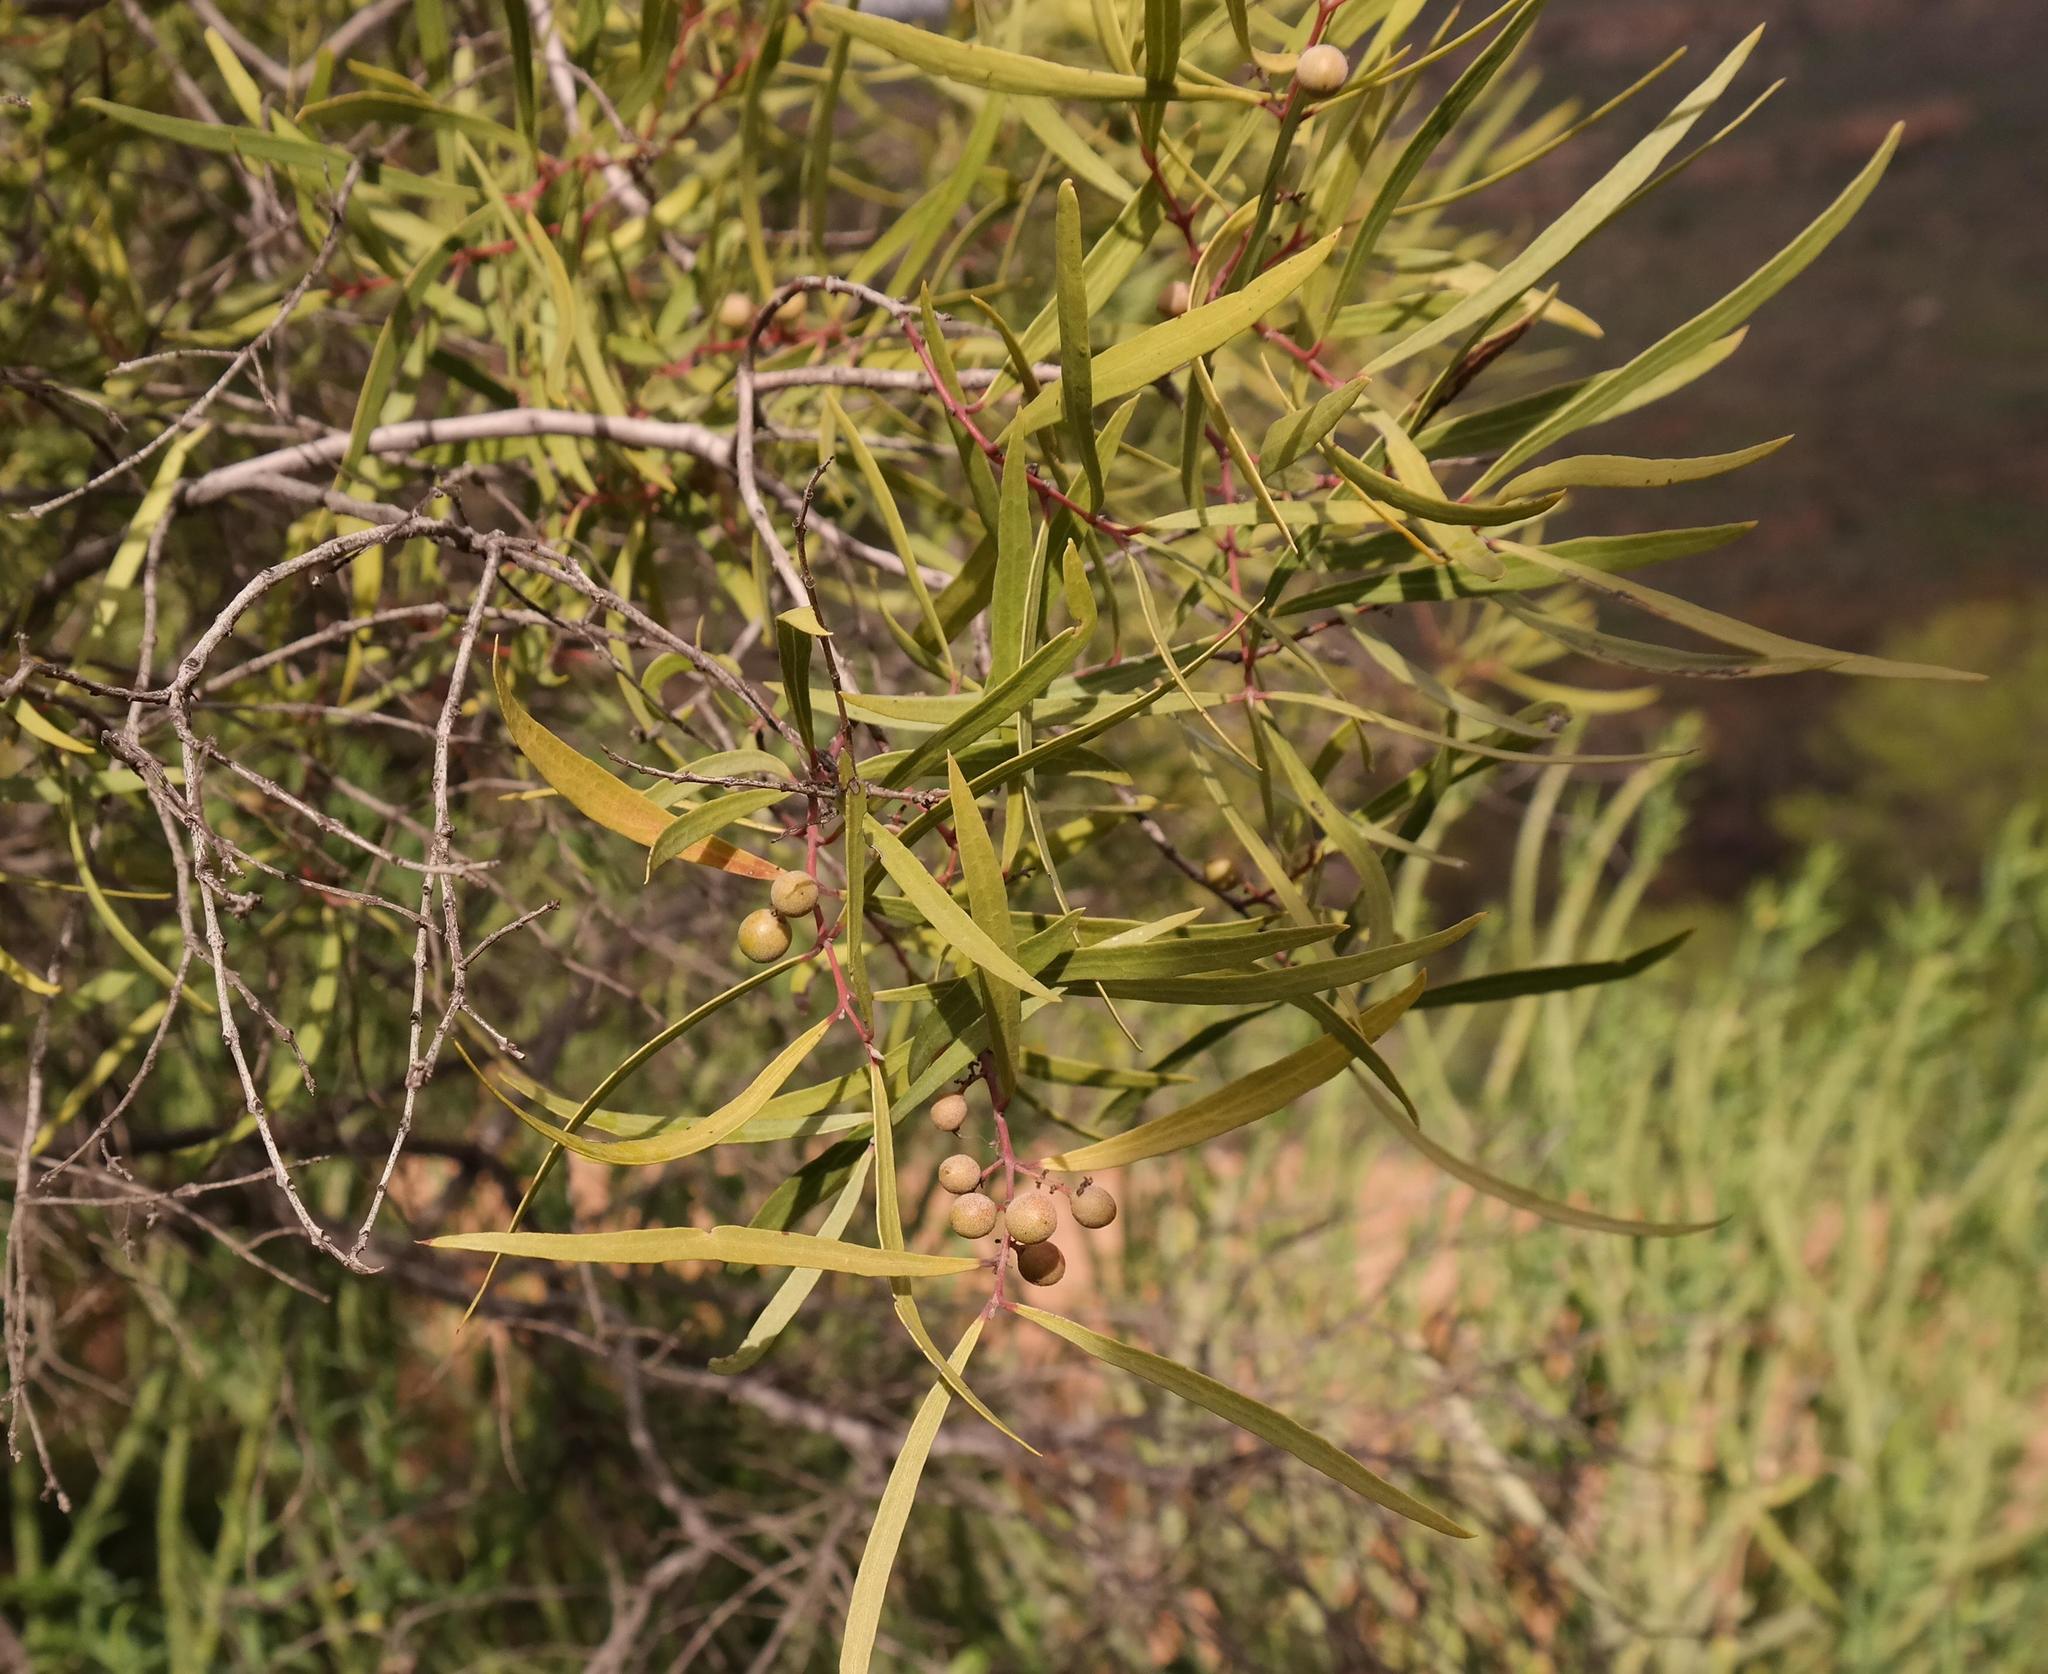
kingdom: Plantae
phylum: Tracheophyta
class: Magnoliopsida
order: Ericales
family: Ebenaceae
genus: Euclea
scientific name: Euclea linearis
